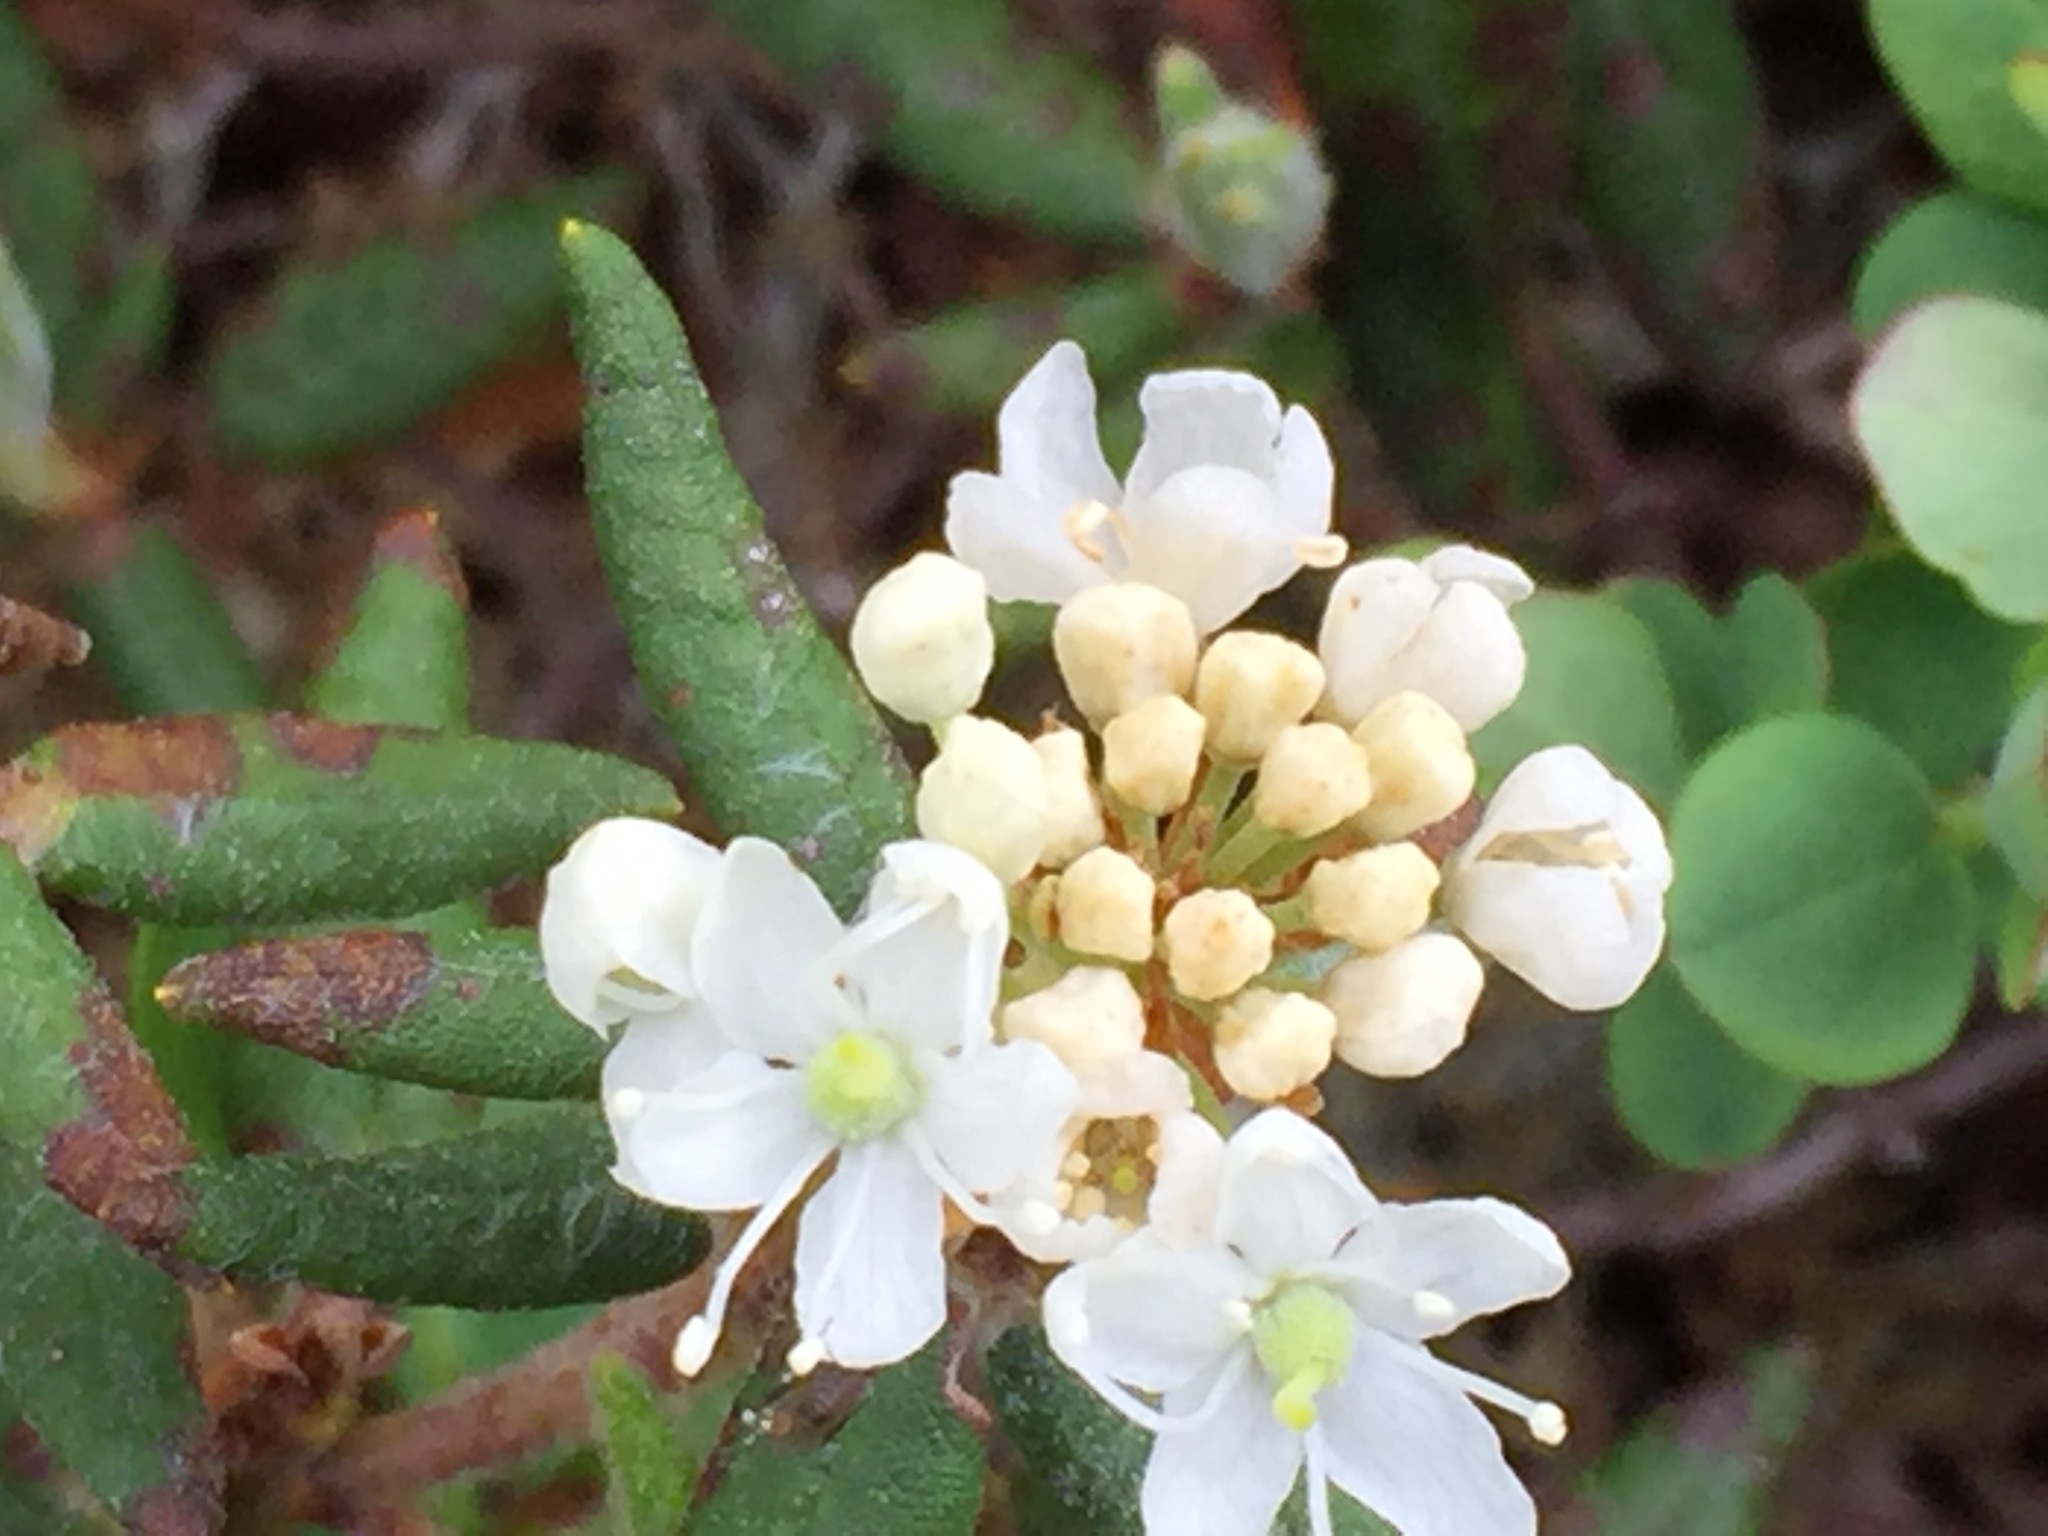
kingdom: Plantae
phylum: Tracheophyta
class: Magnoliopsida
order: Ericales
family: Ericaceae
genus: Rhododendron
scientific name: Rhododendron groenlandicum
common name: Bog labrador tea
